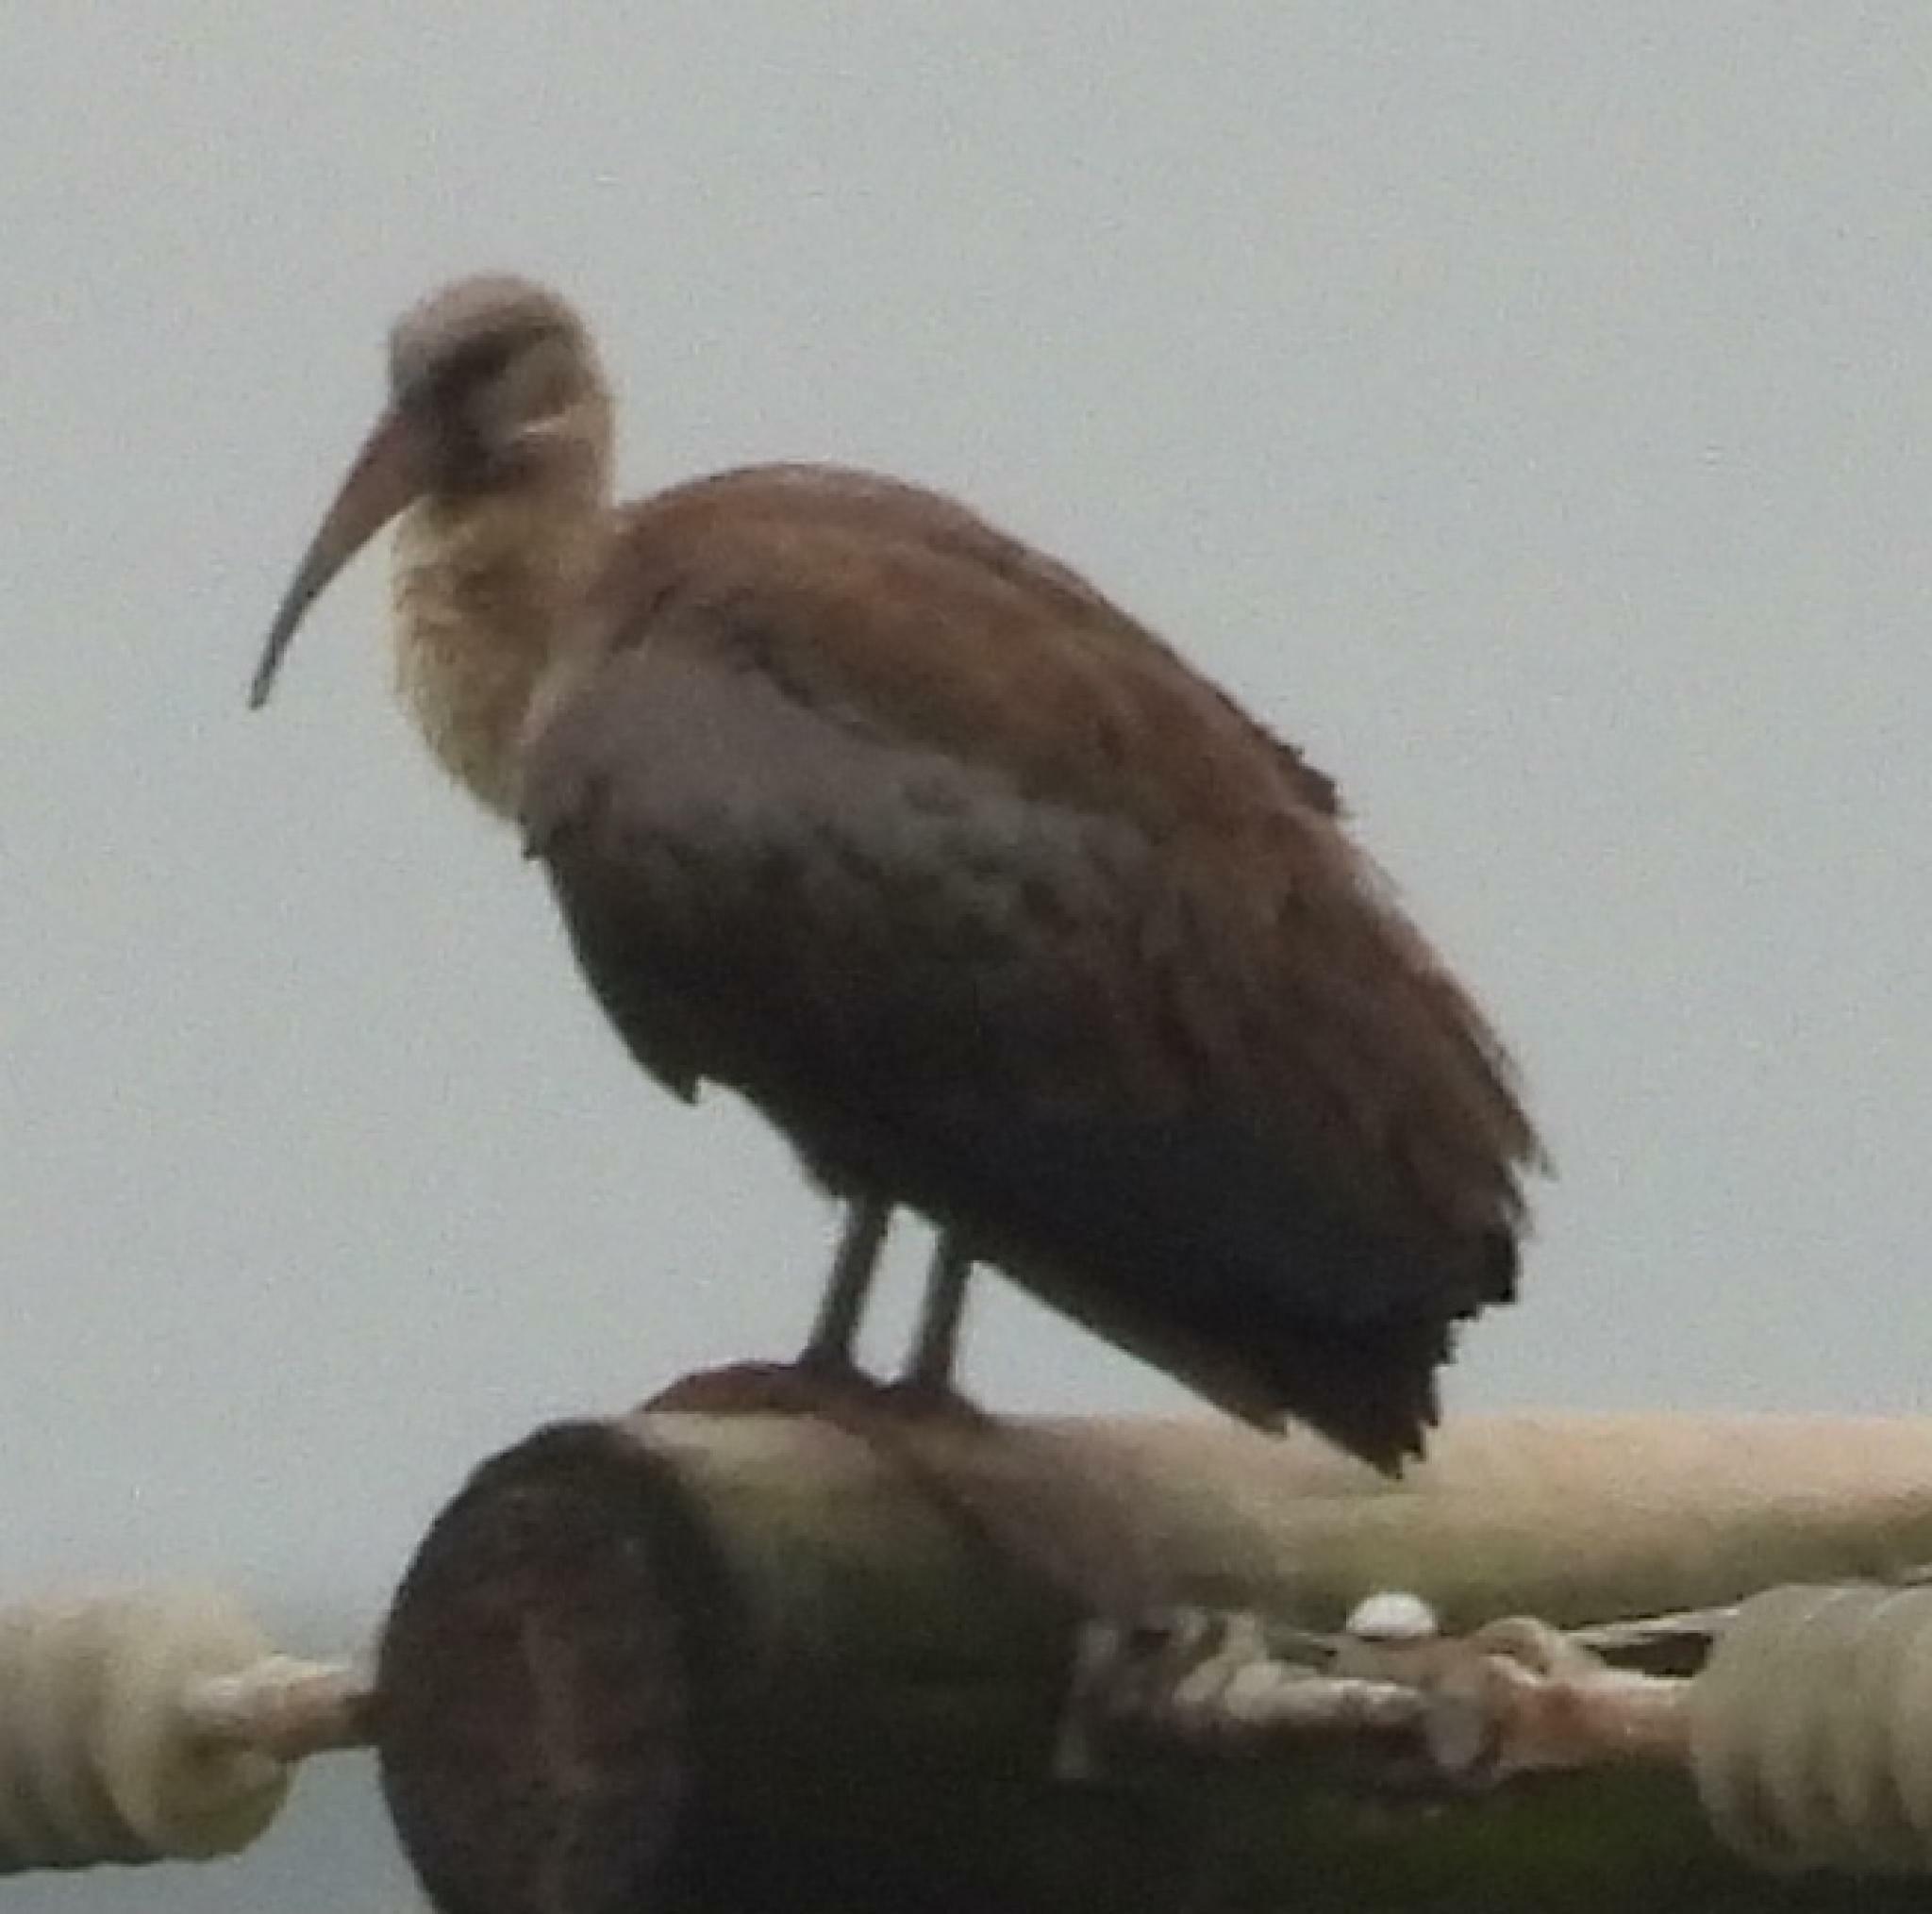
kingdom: Animalia
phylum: Chordata
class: Aves
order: Pelecaniformes
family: Threskiornithidae
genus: Bostrychia
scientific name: Bostrychia hagedash
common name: Hadada ibis
